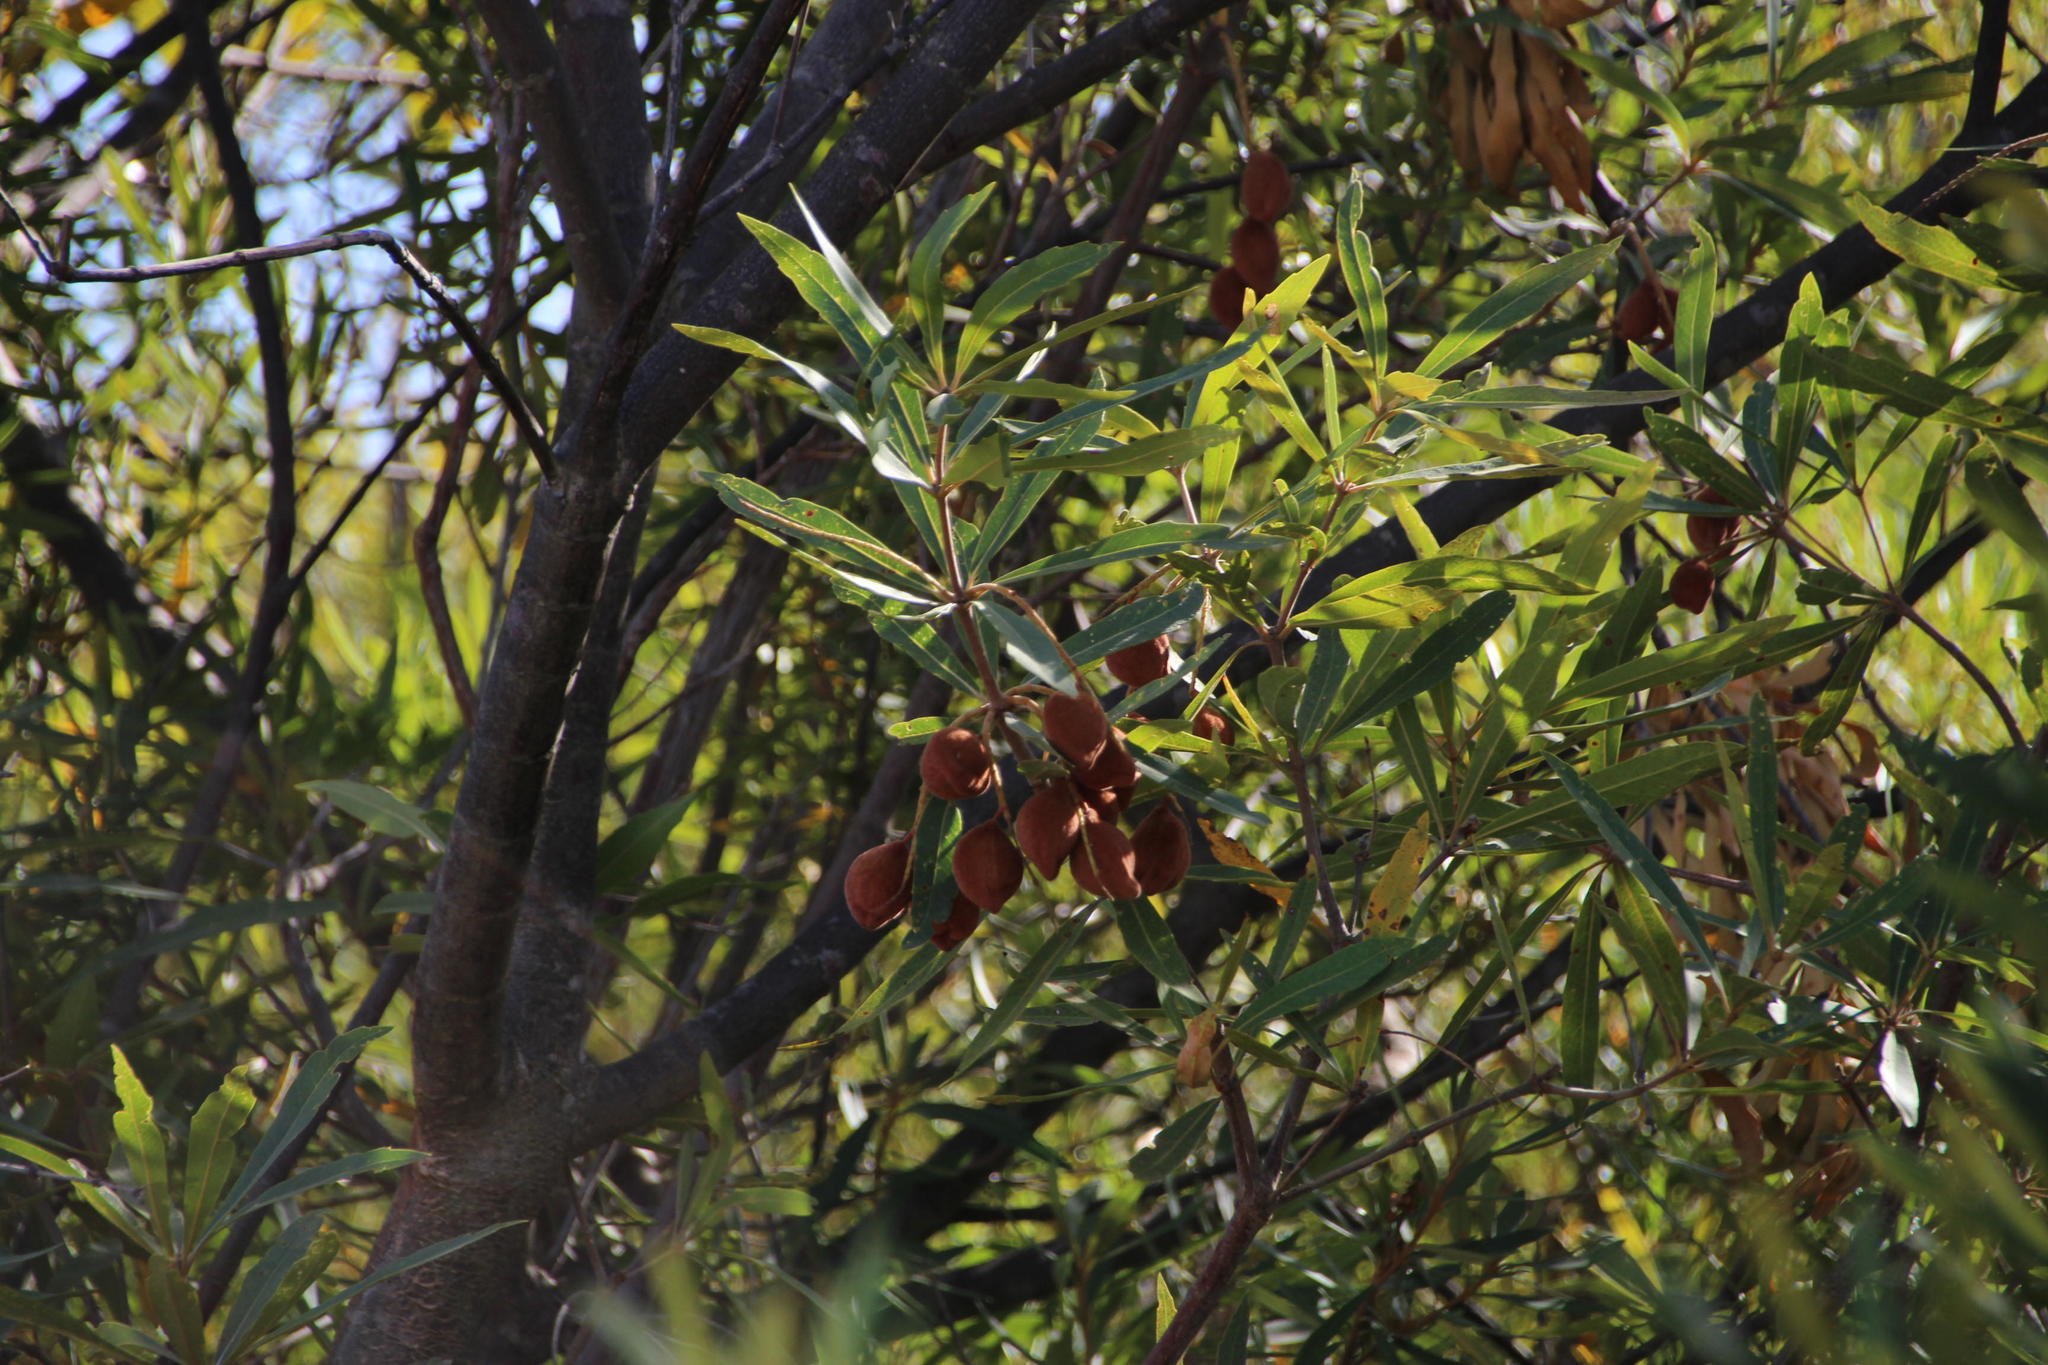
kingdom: Plantae
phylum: Tracheophyta
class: Magnoliopsida
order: Proteales
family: Proteaceae
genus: Brabejum
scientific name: Brabejum stellatifolium
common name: Wild almond
